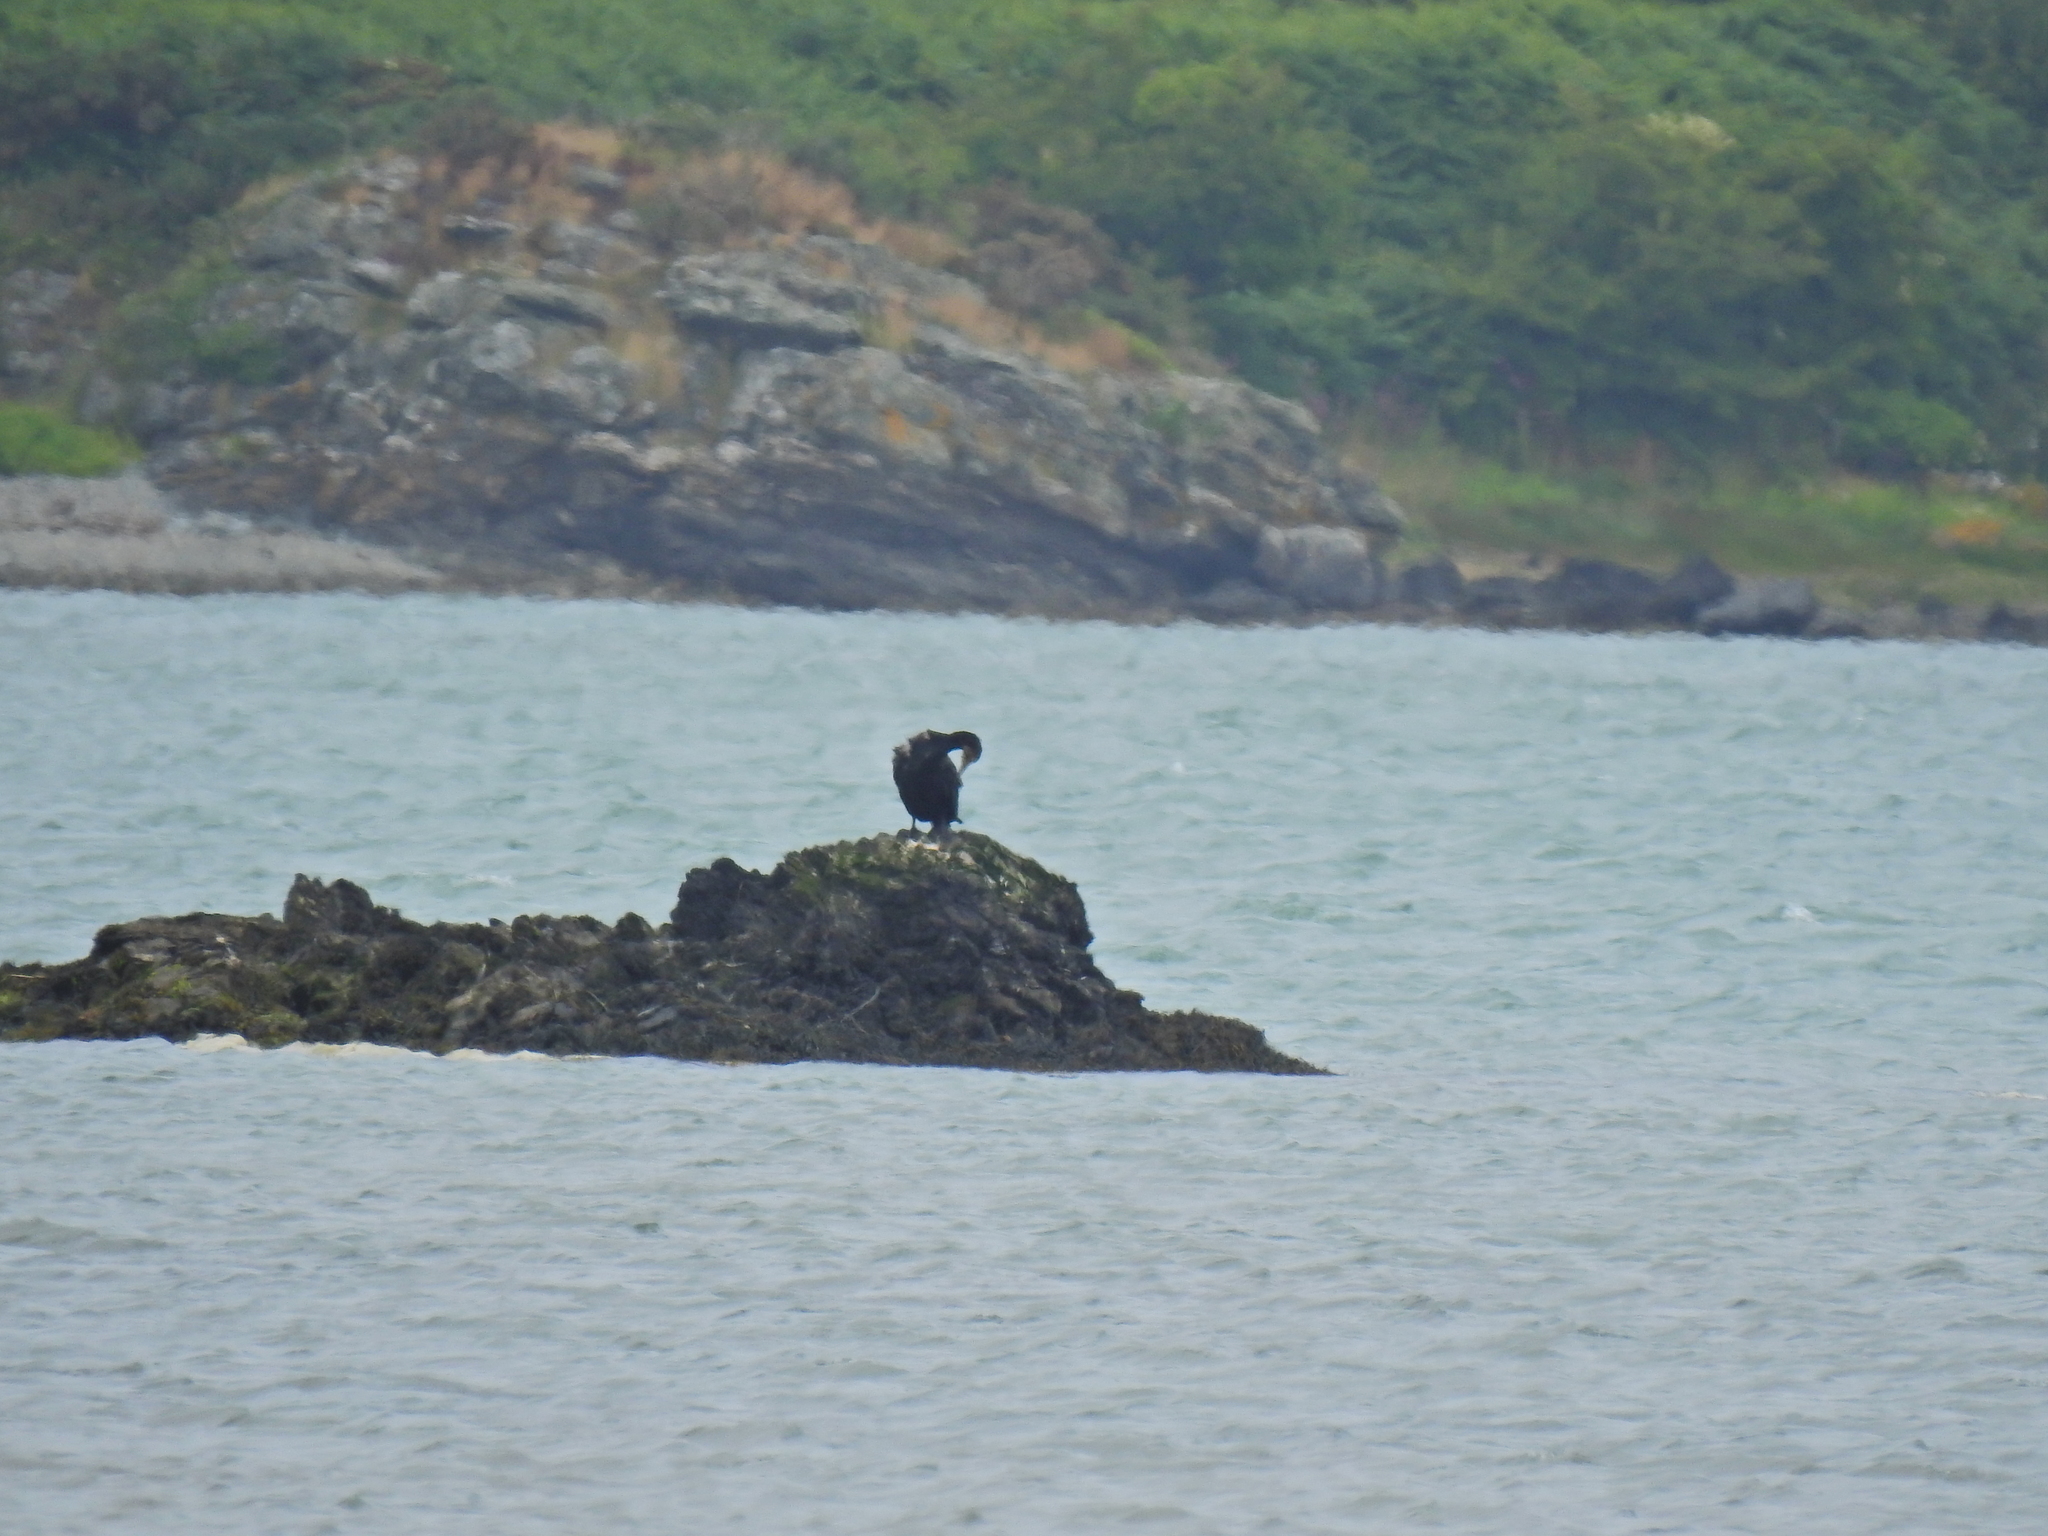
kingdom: Animalia
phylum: Chordata
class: Aves
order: Suliformes
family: Phalacrocoracidae
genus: Phalacrocorax
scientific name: Phalacrocorax aristotelis
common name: European shag
